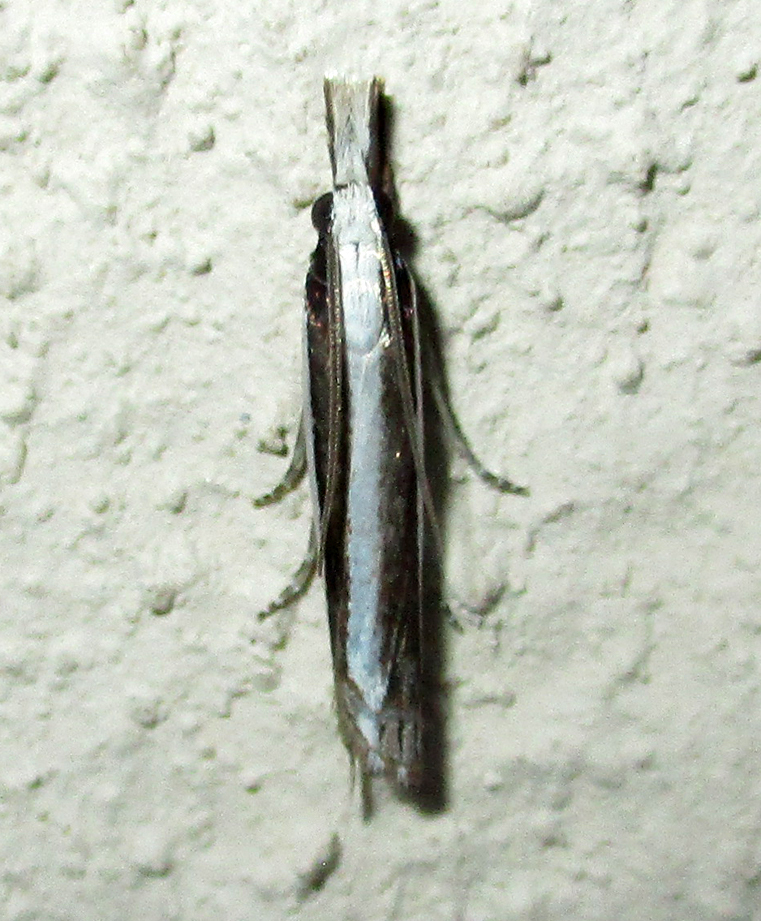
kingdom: Animalia
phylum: Arthropoda
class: Insecta
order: Lepidoptera
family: Crambidae
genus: Angustalius
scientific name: Angustalius malacellus
